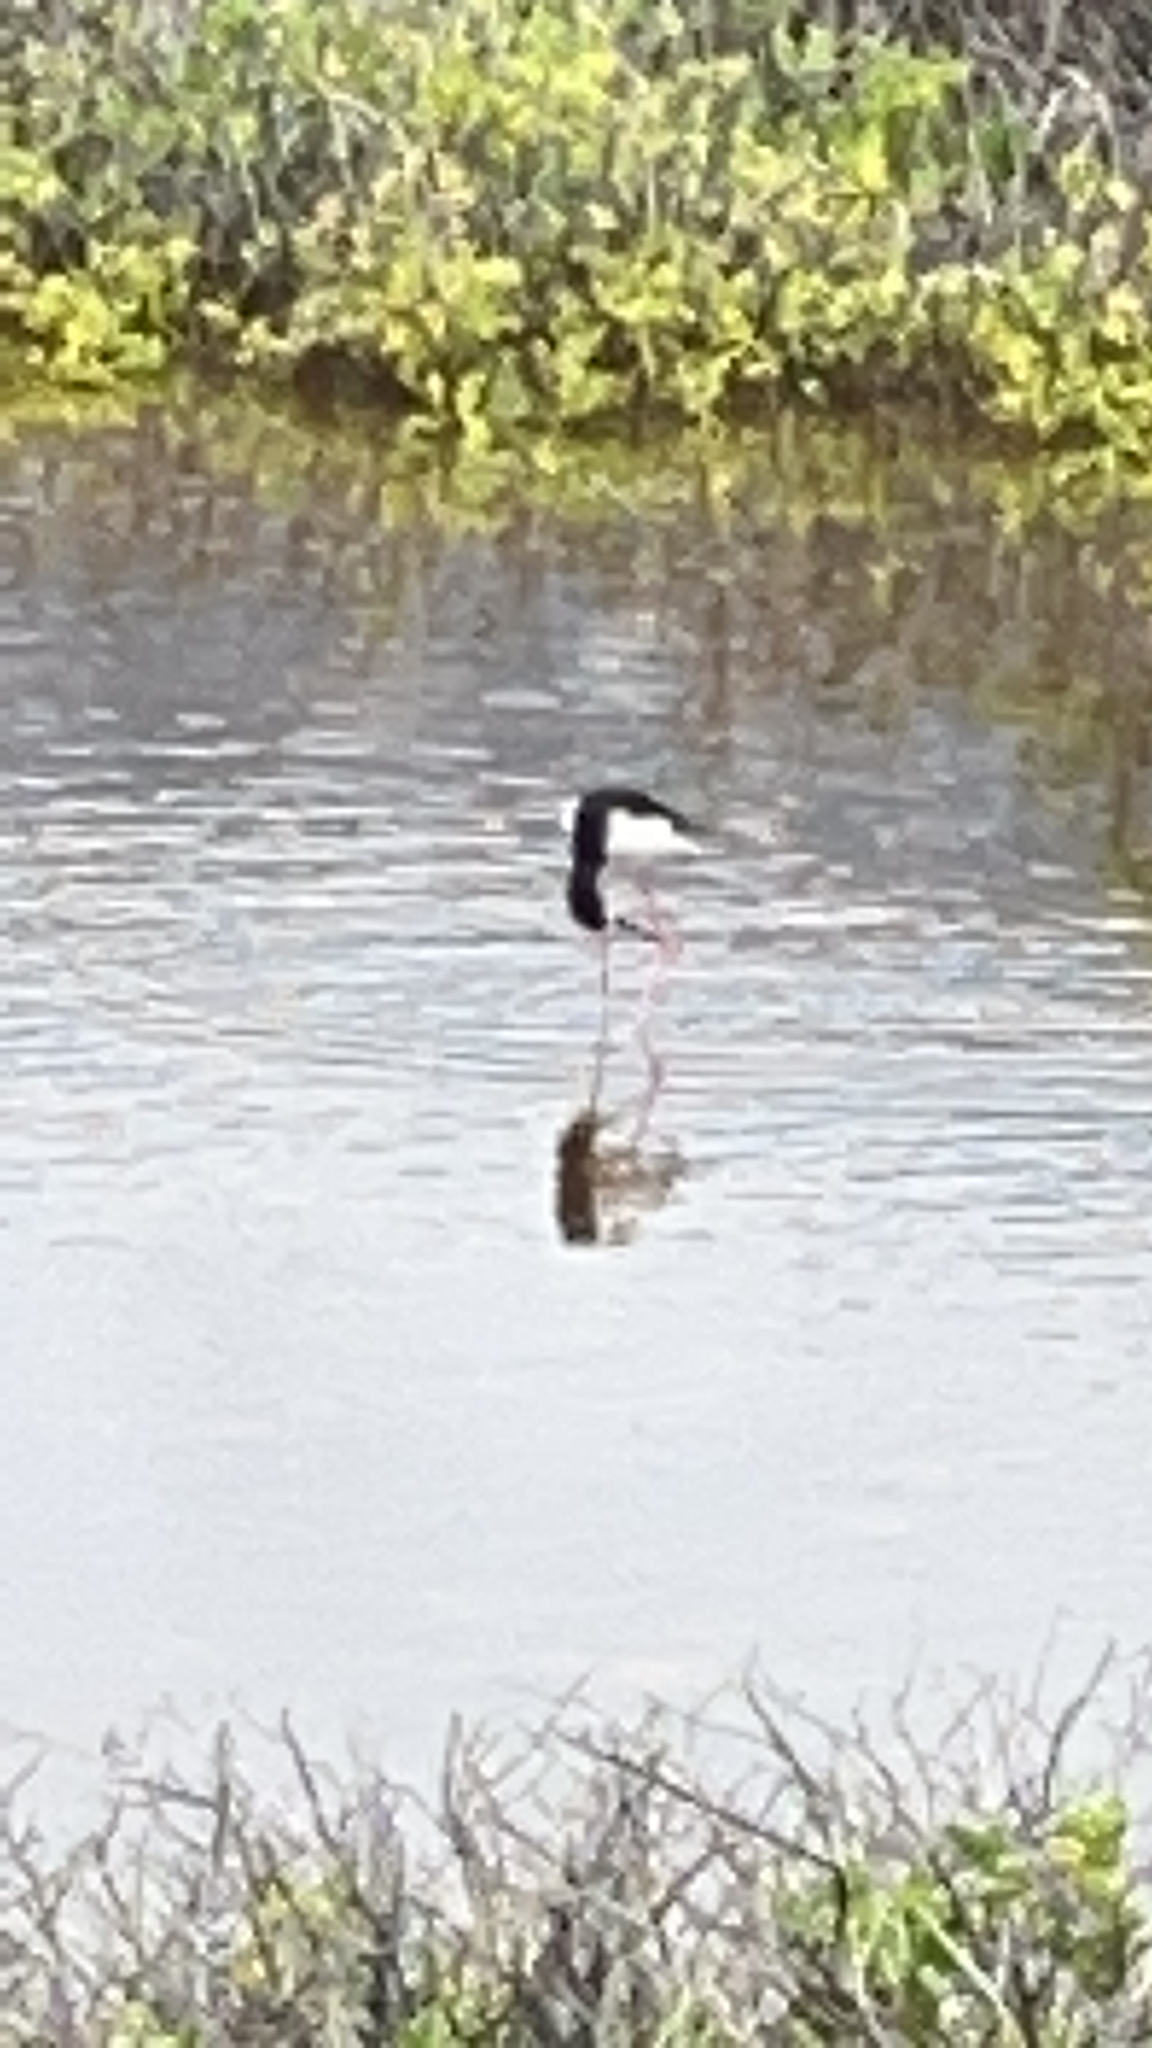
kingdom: Animalia
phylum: Chordata
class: Aves
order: Charadriiformes
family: Recurvirostridae
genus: Himantopus
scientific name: Himantopus mexicanus
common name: Black-necked stilt
